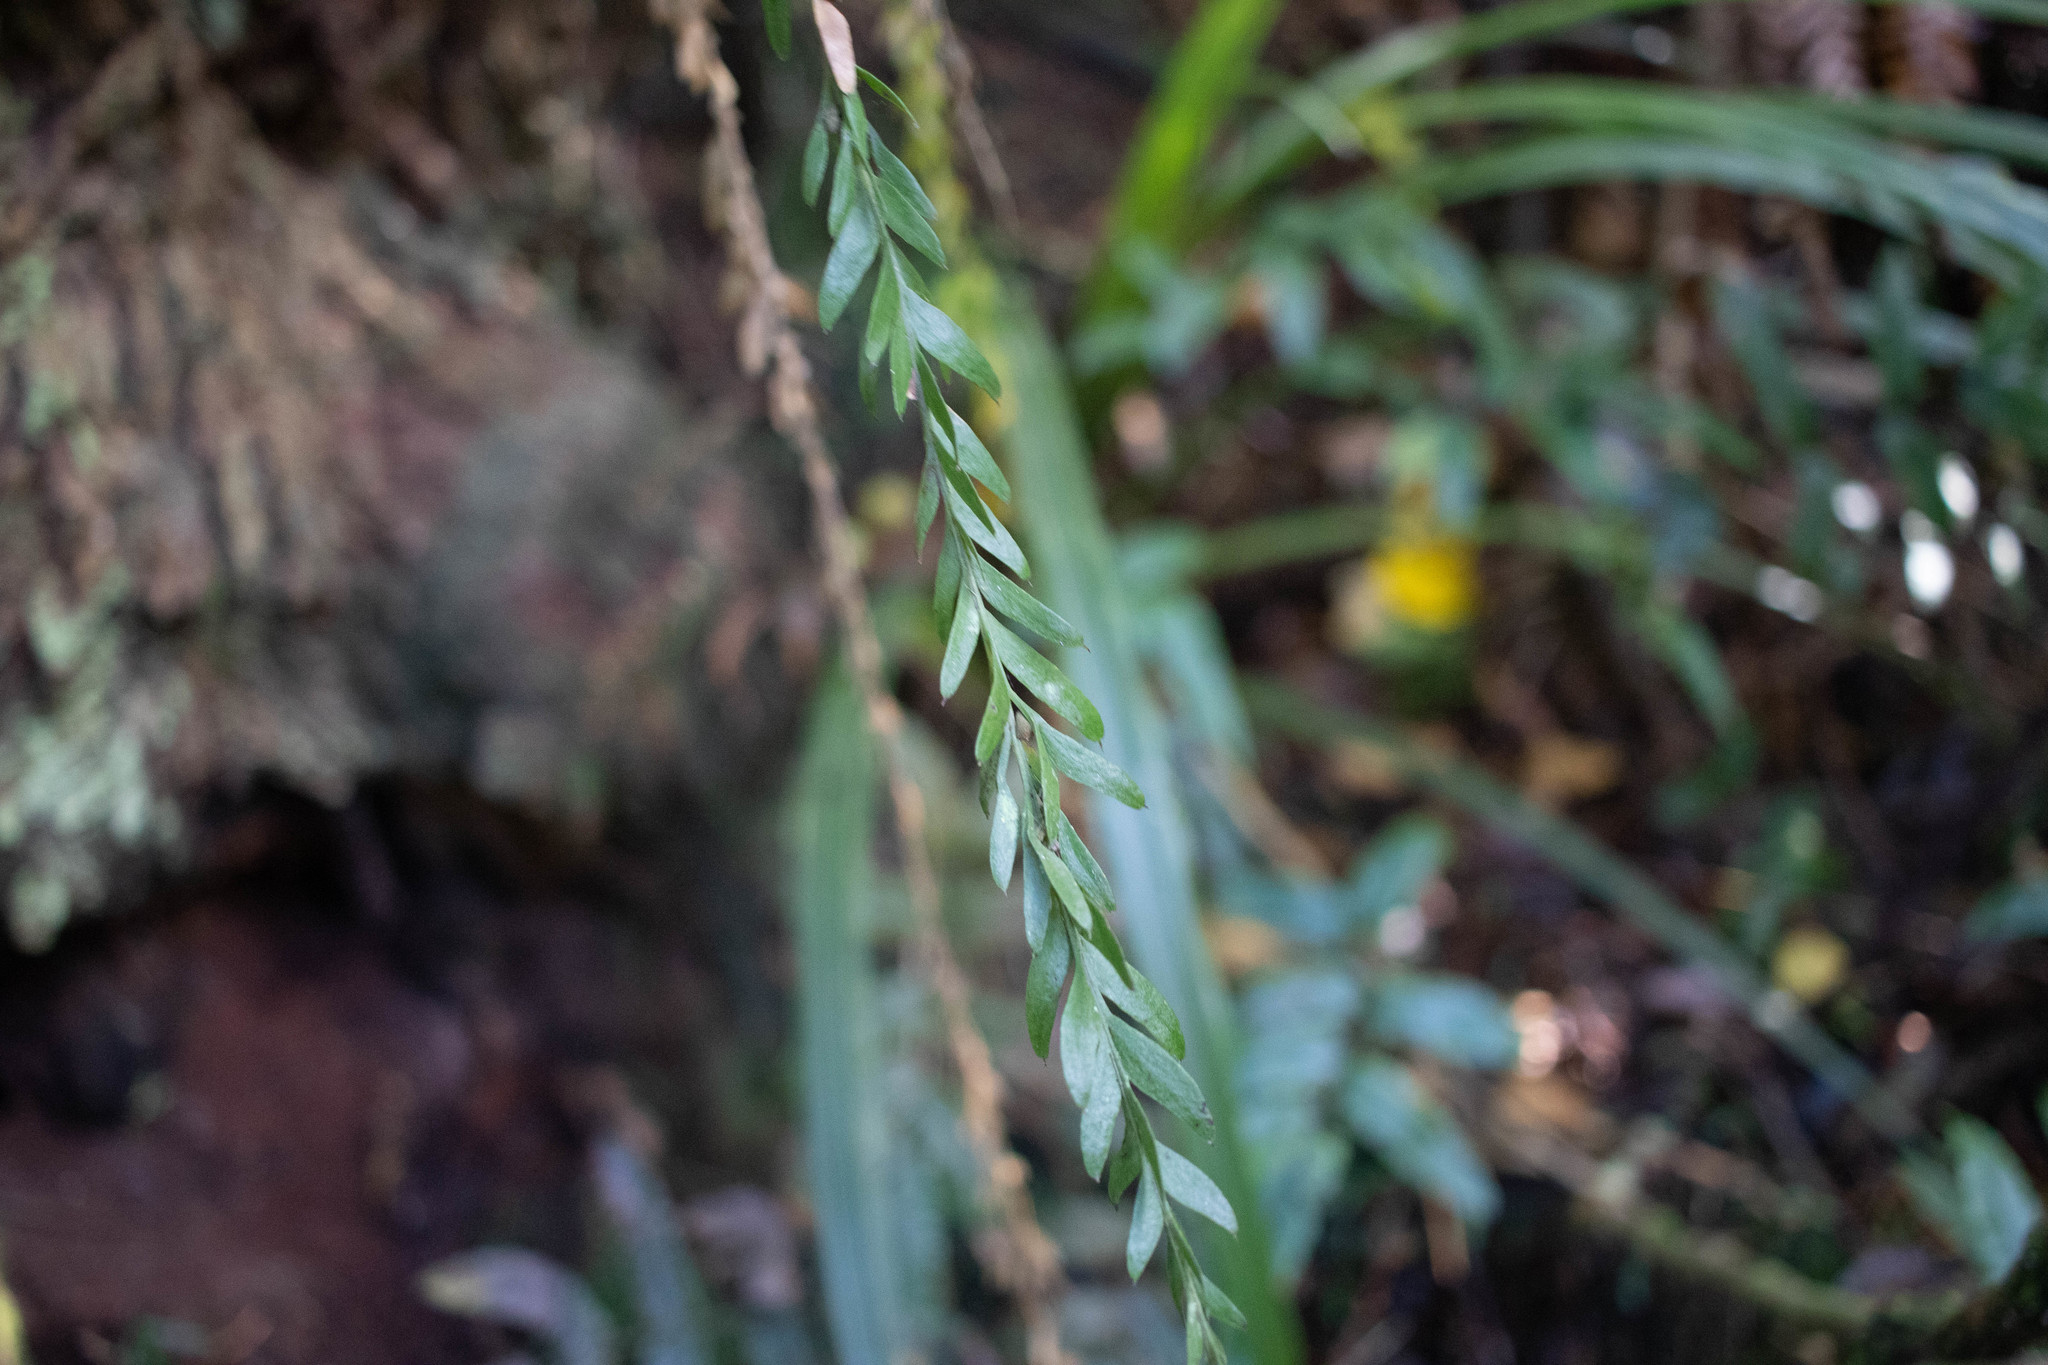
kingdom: Plantae
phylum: Tracheophyta
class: Polypodiopsida
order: Psilotales
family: Psilotaceae
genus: Tmesipteris
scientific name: Tmesipteris tannensis
